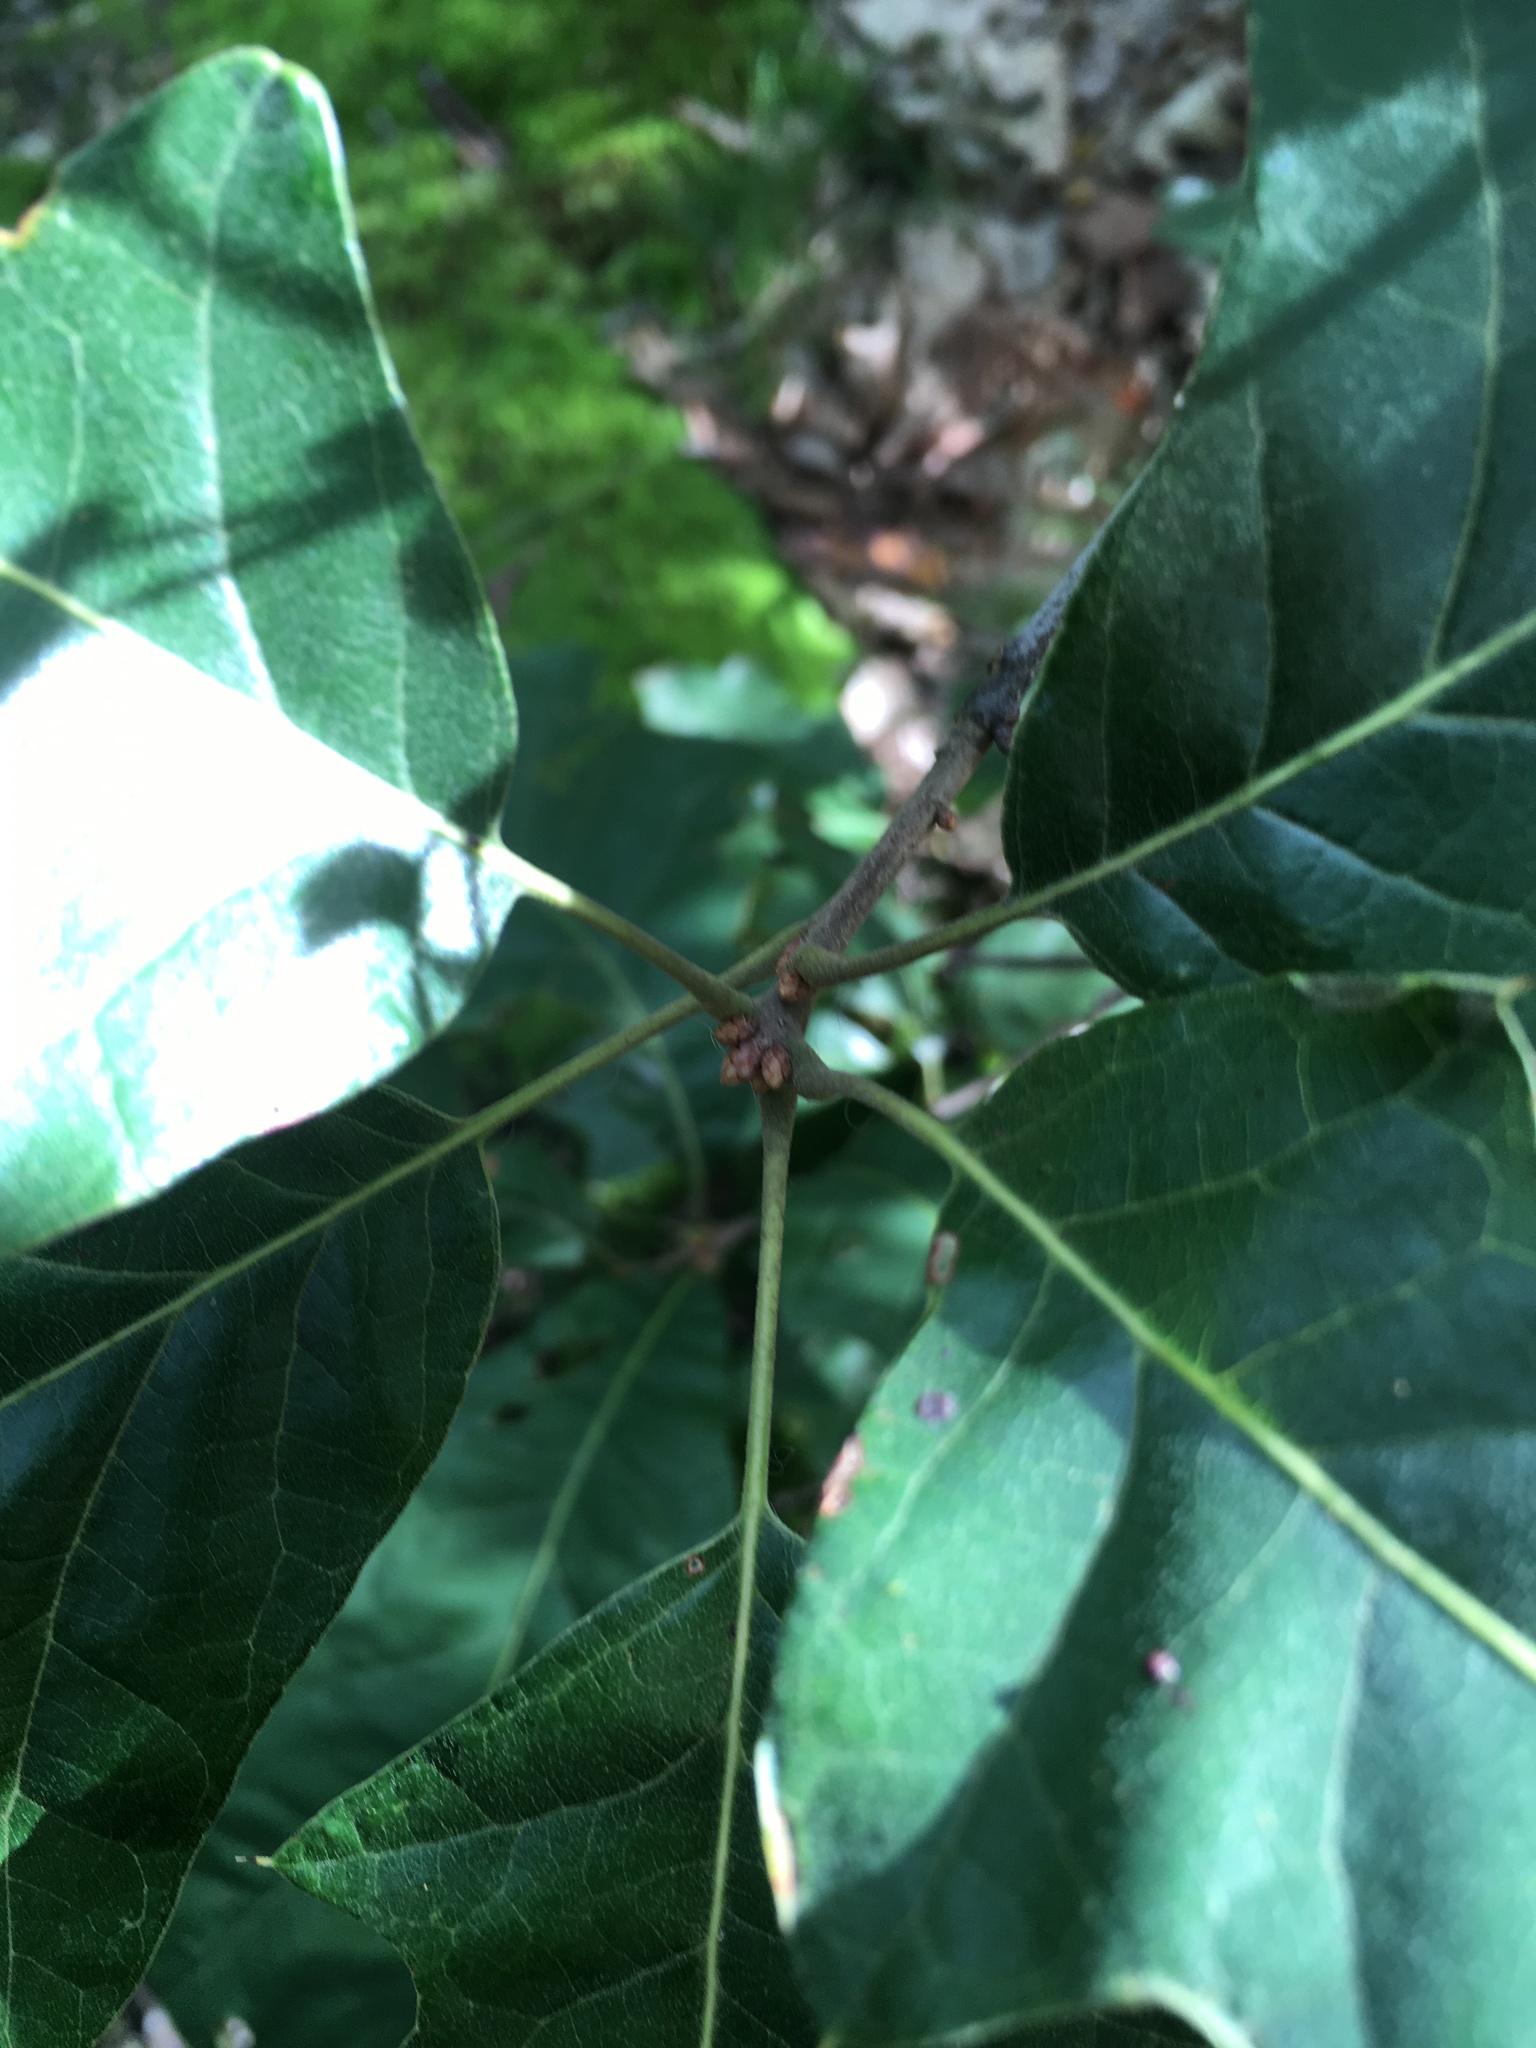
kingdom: Plantae
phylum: Tracheophyta
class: Magnoliopsida
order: Fagales
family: Fagaceae
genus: Quercus
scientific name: Quercus ilicifolia
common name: Bear oak
